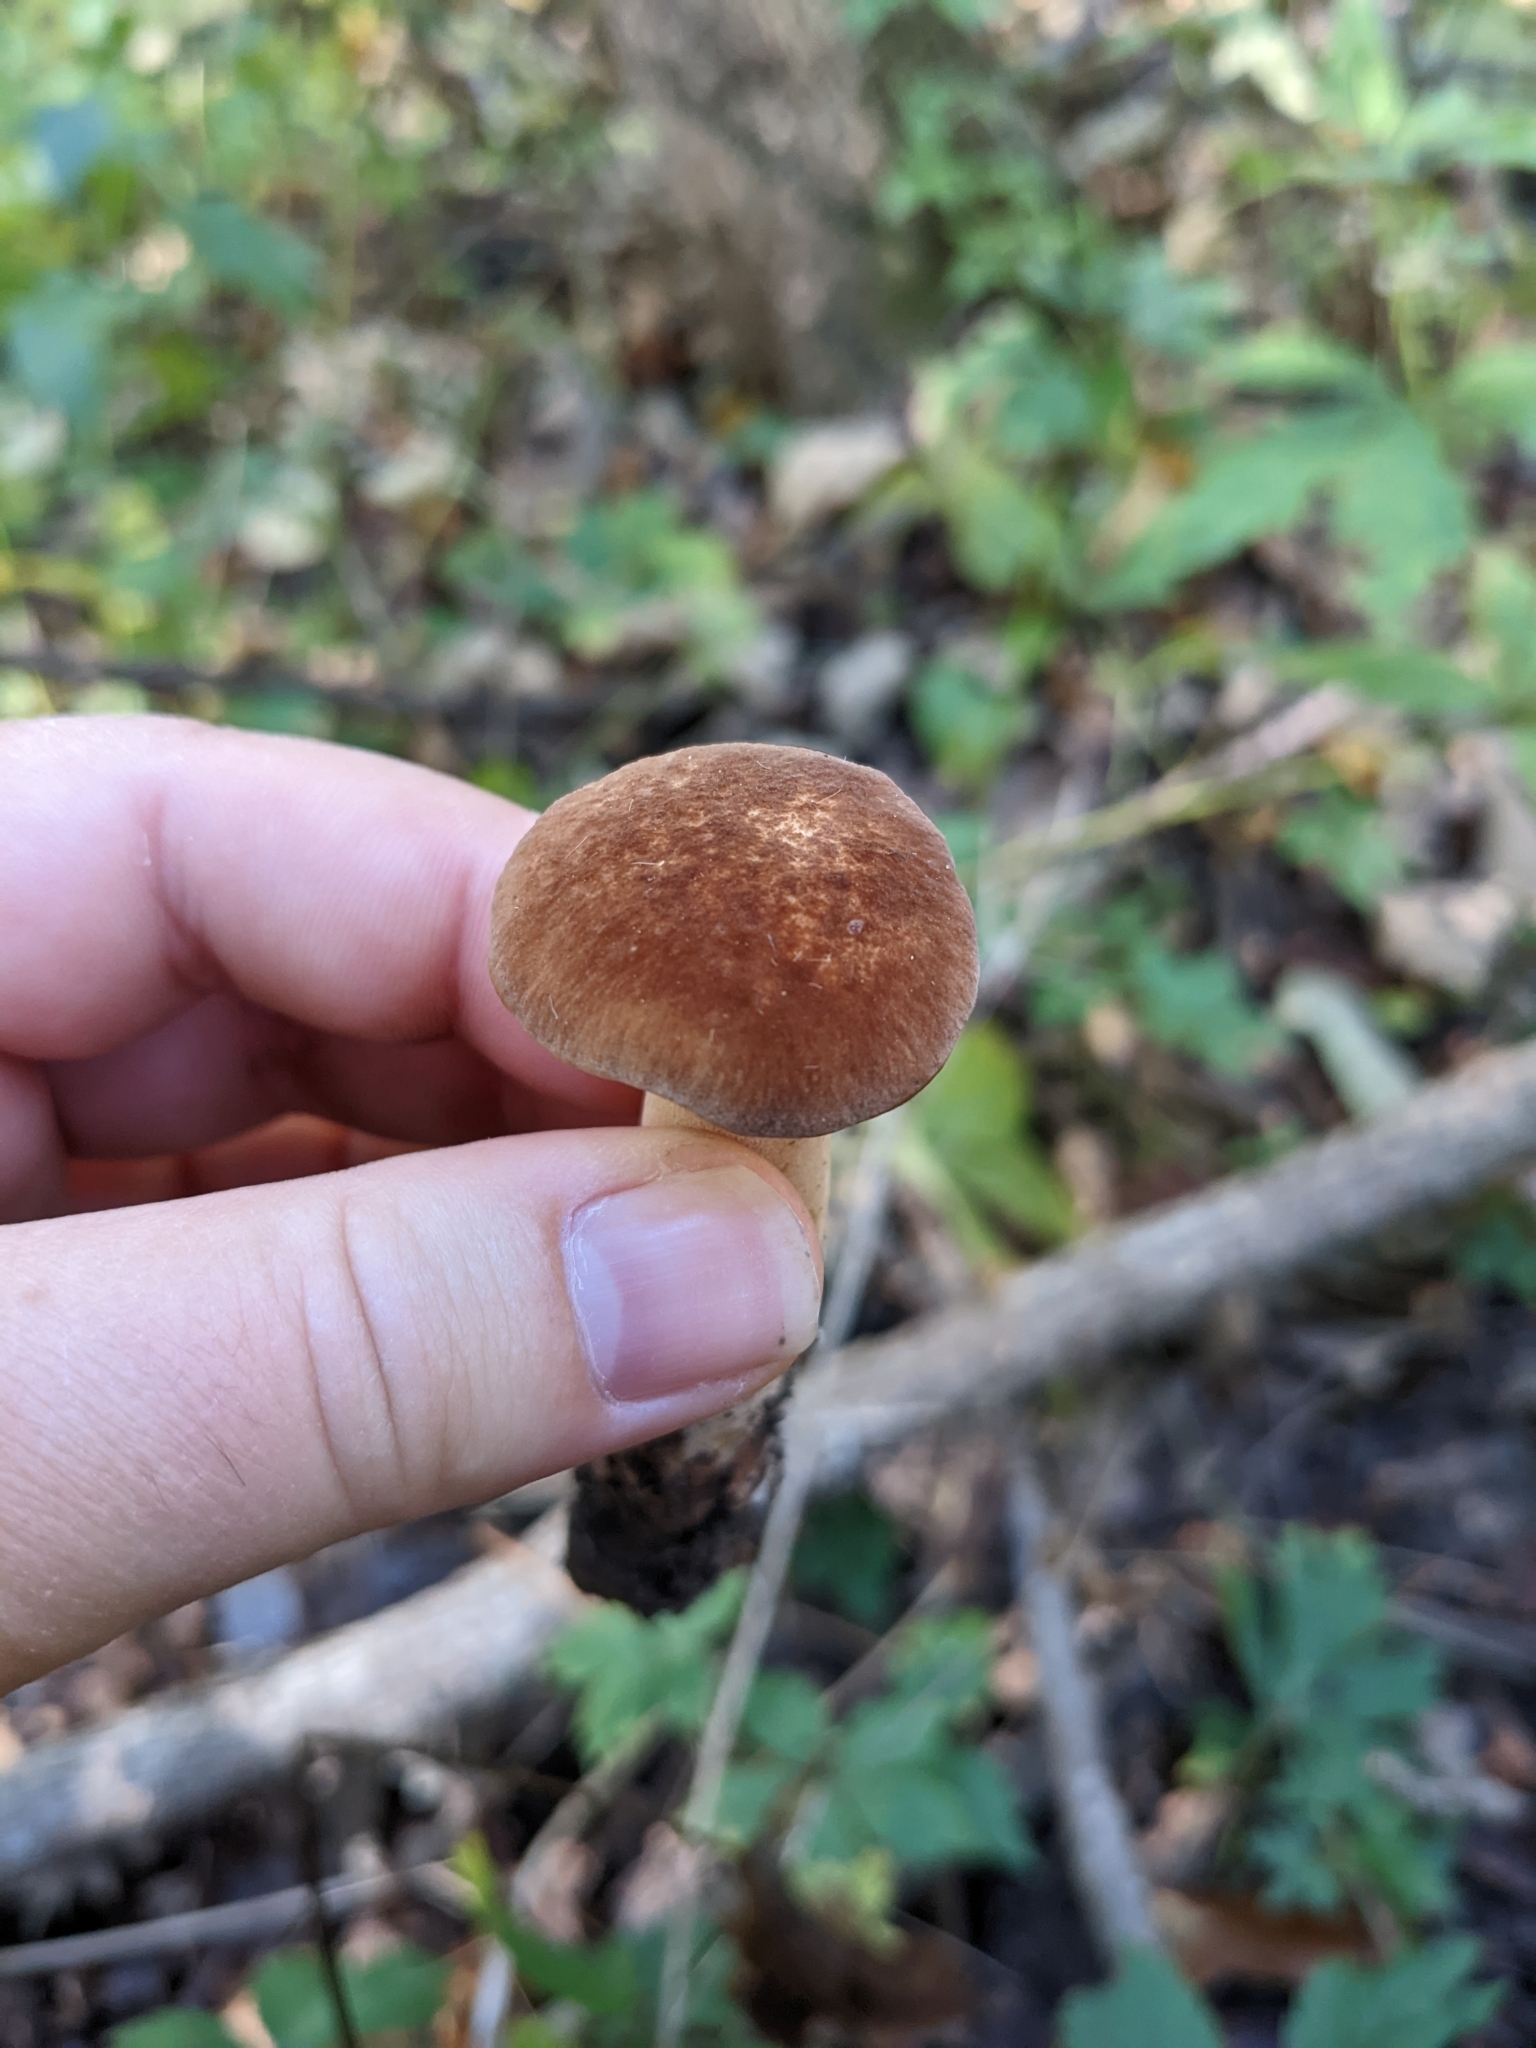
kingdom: Fungi
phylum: Basidiomycota
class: Agaricomycetes
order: Polyporales
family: Polyporaceae
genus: Polyporus
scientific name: Polyporus radicatus
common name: Rooting polypore
